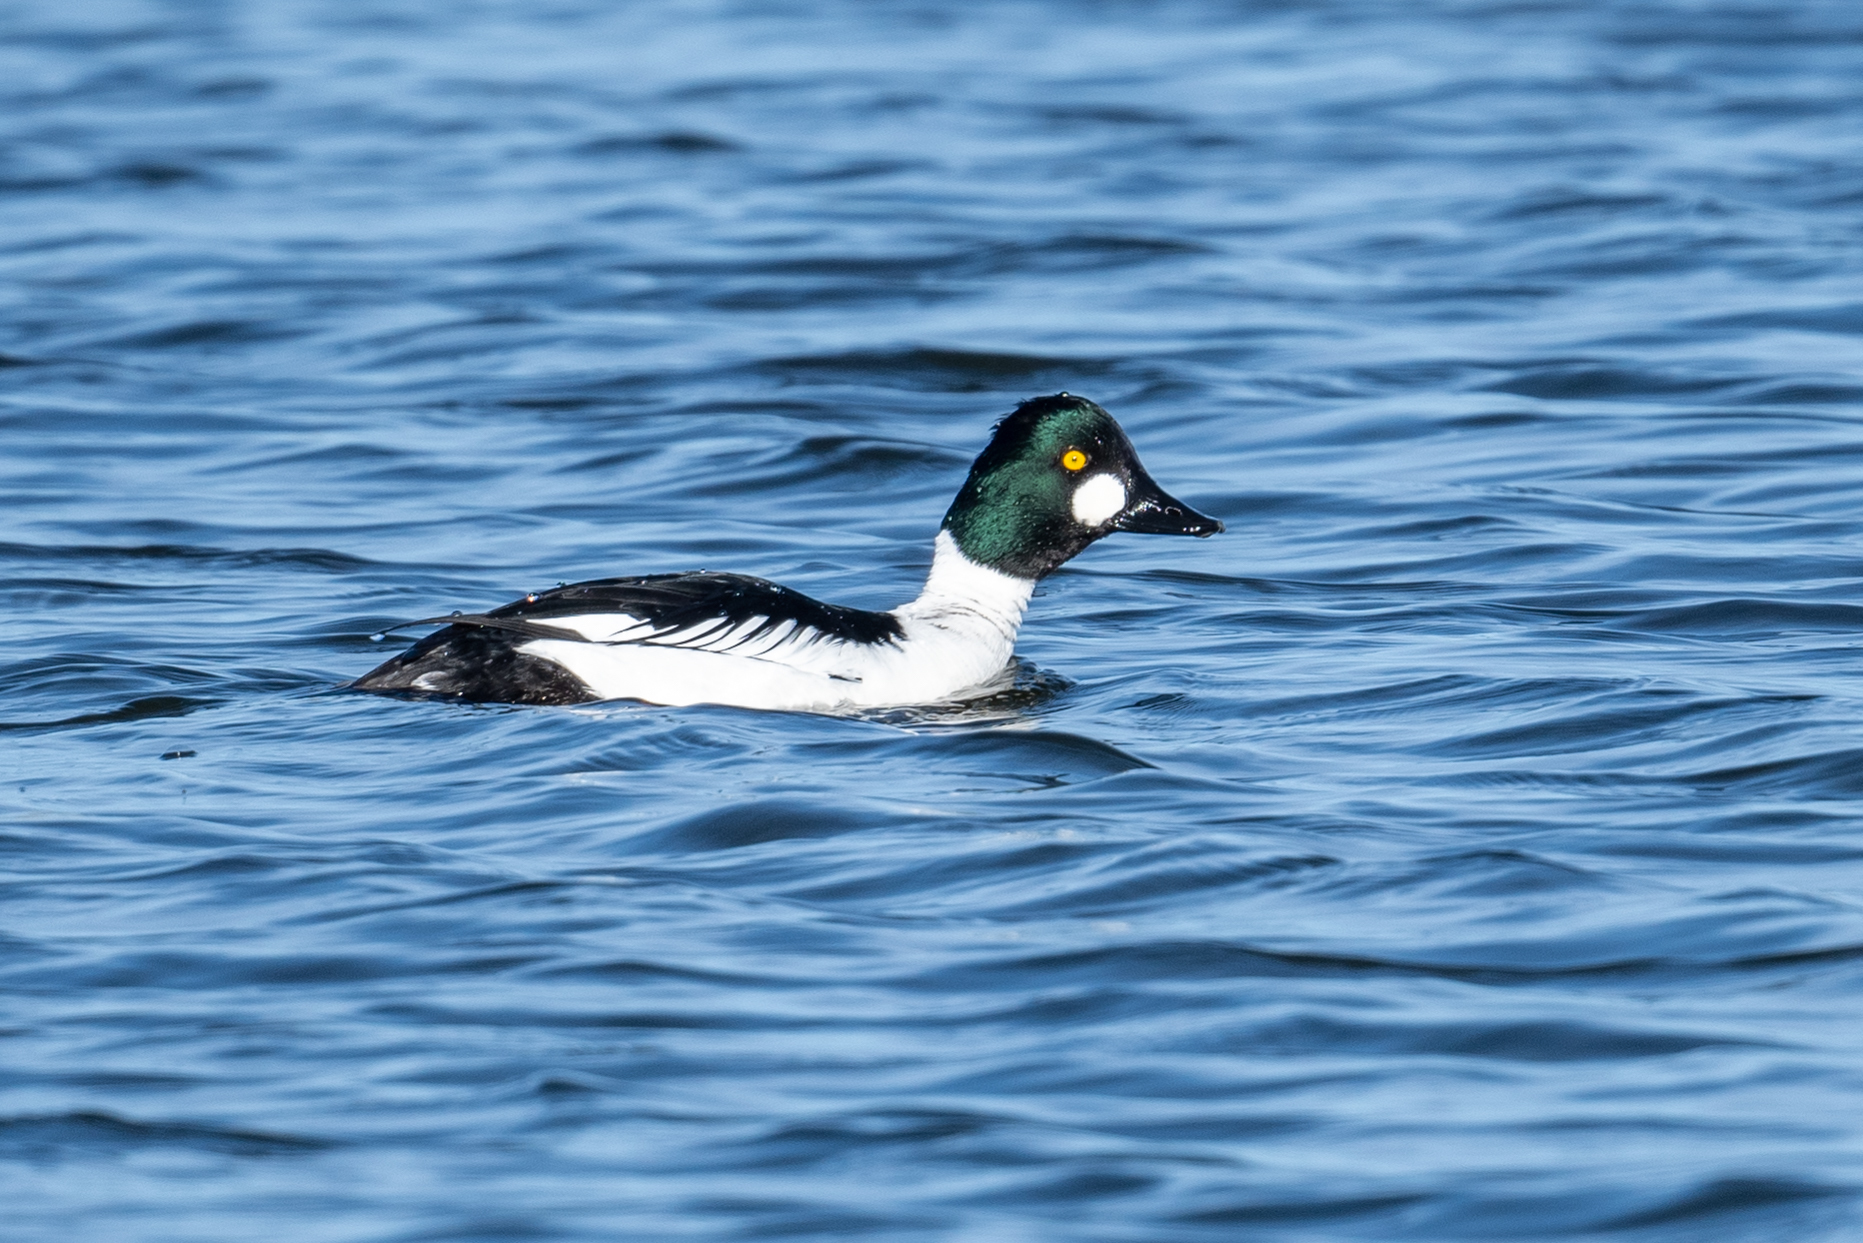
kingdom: Animalia
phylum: Chordata
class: Aves
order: Anseriformes
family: Anatidae
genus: Bucephala
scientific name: Bucephala clangula
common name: Common goldeneye
